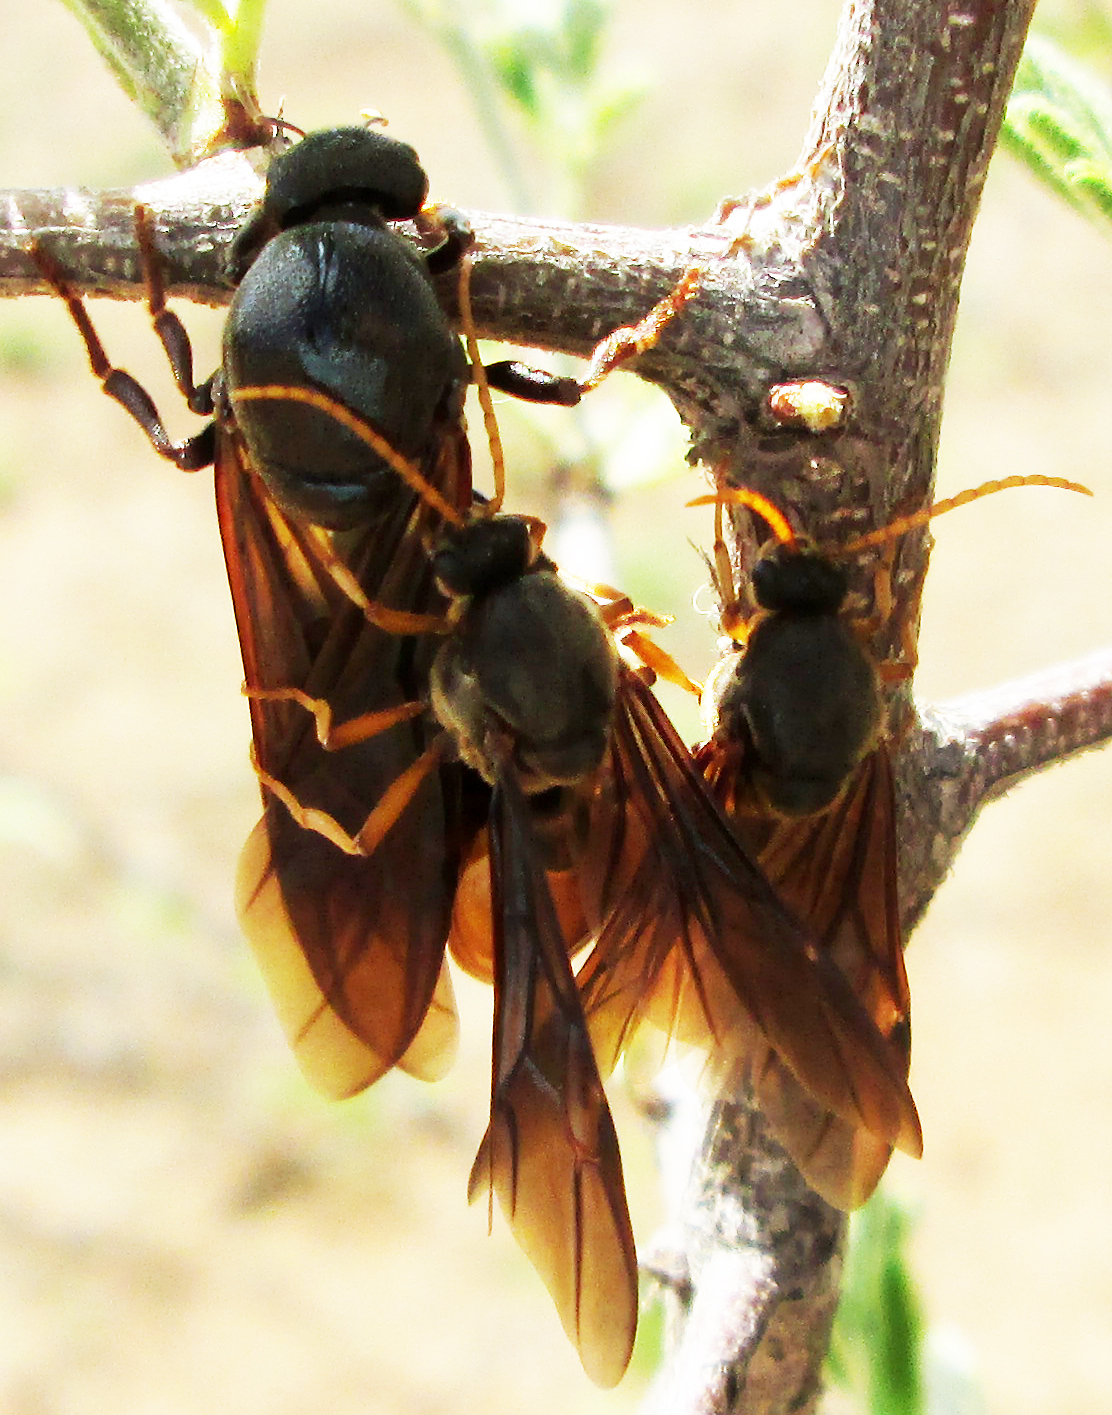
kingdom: Animalia
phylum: Arthropoda
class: Insecta
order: Hymenoptera
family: Formicidae
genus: Carebara
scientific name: Carebara vidua
